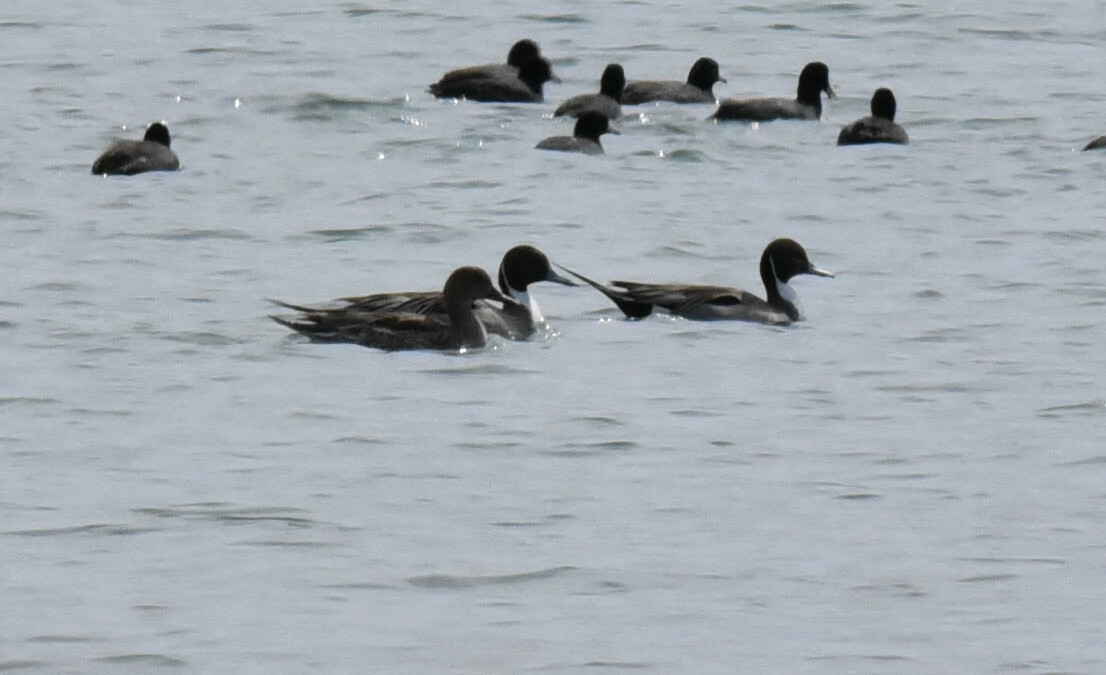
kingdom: Animalia
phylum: Chordata
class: Aves
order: Anseriformes
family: Anatidae
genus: Anas
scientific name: Anas acuta
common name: Northern pintail
